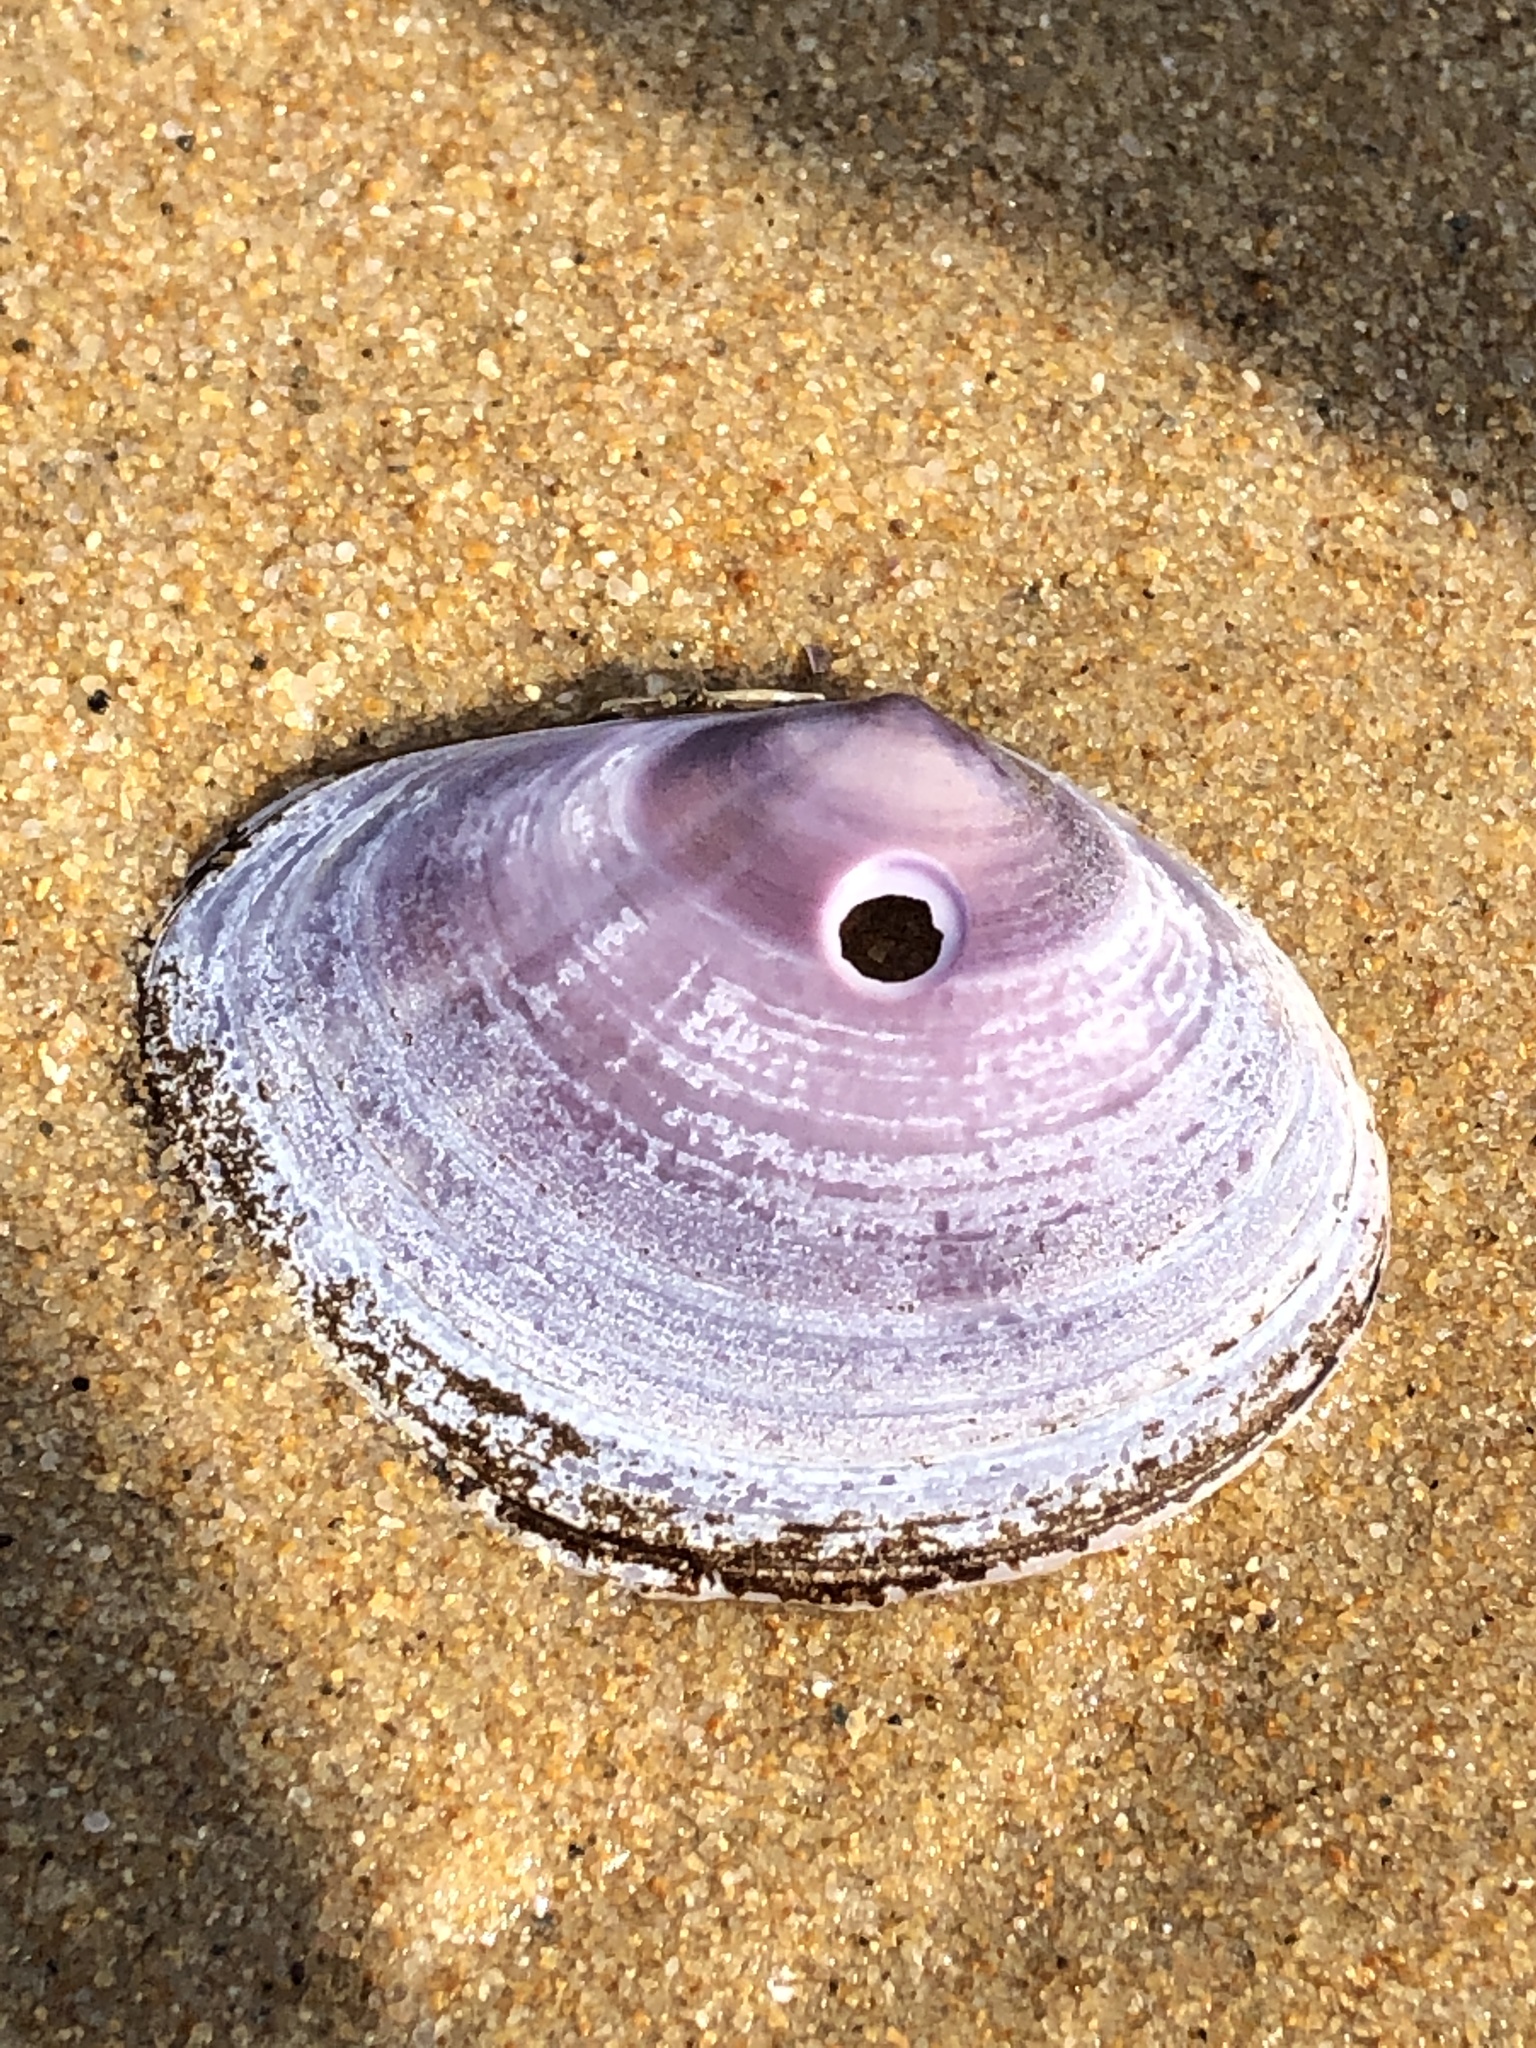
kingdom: Animalia
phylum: Mollusca
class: Bivalvia
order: Cardiida
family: Psammobiidae
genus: Nuttallia
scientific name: Nuttallia japonica
